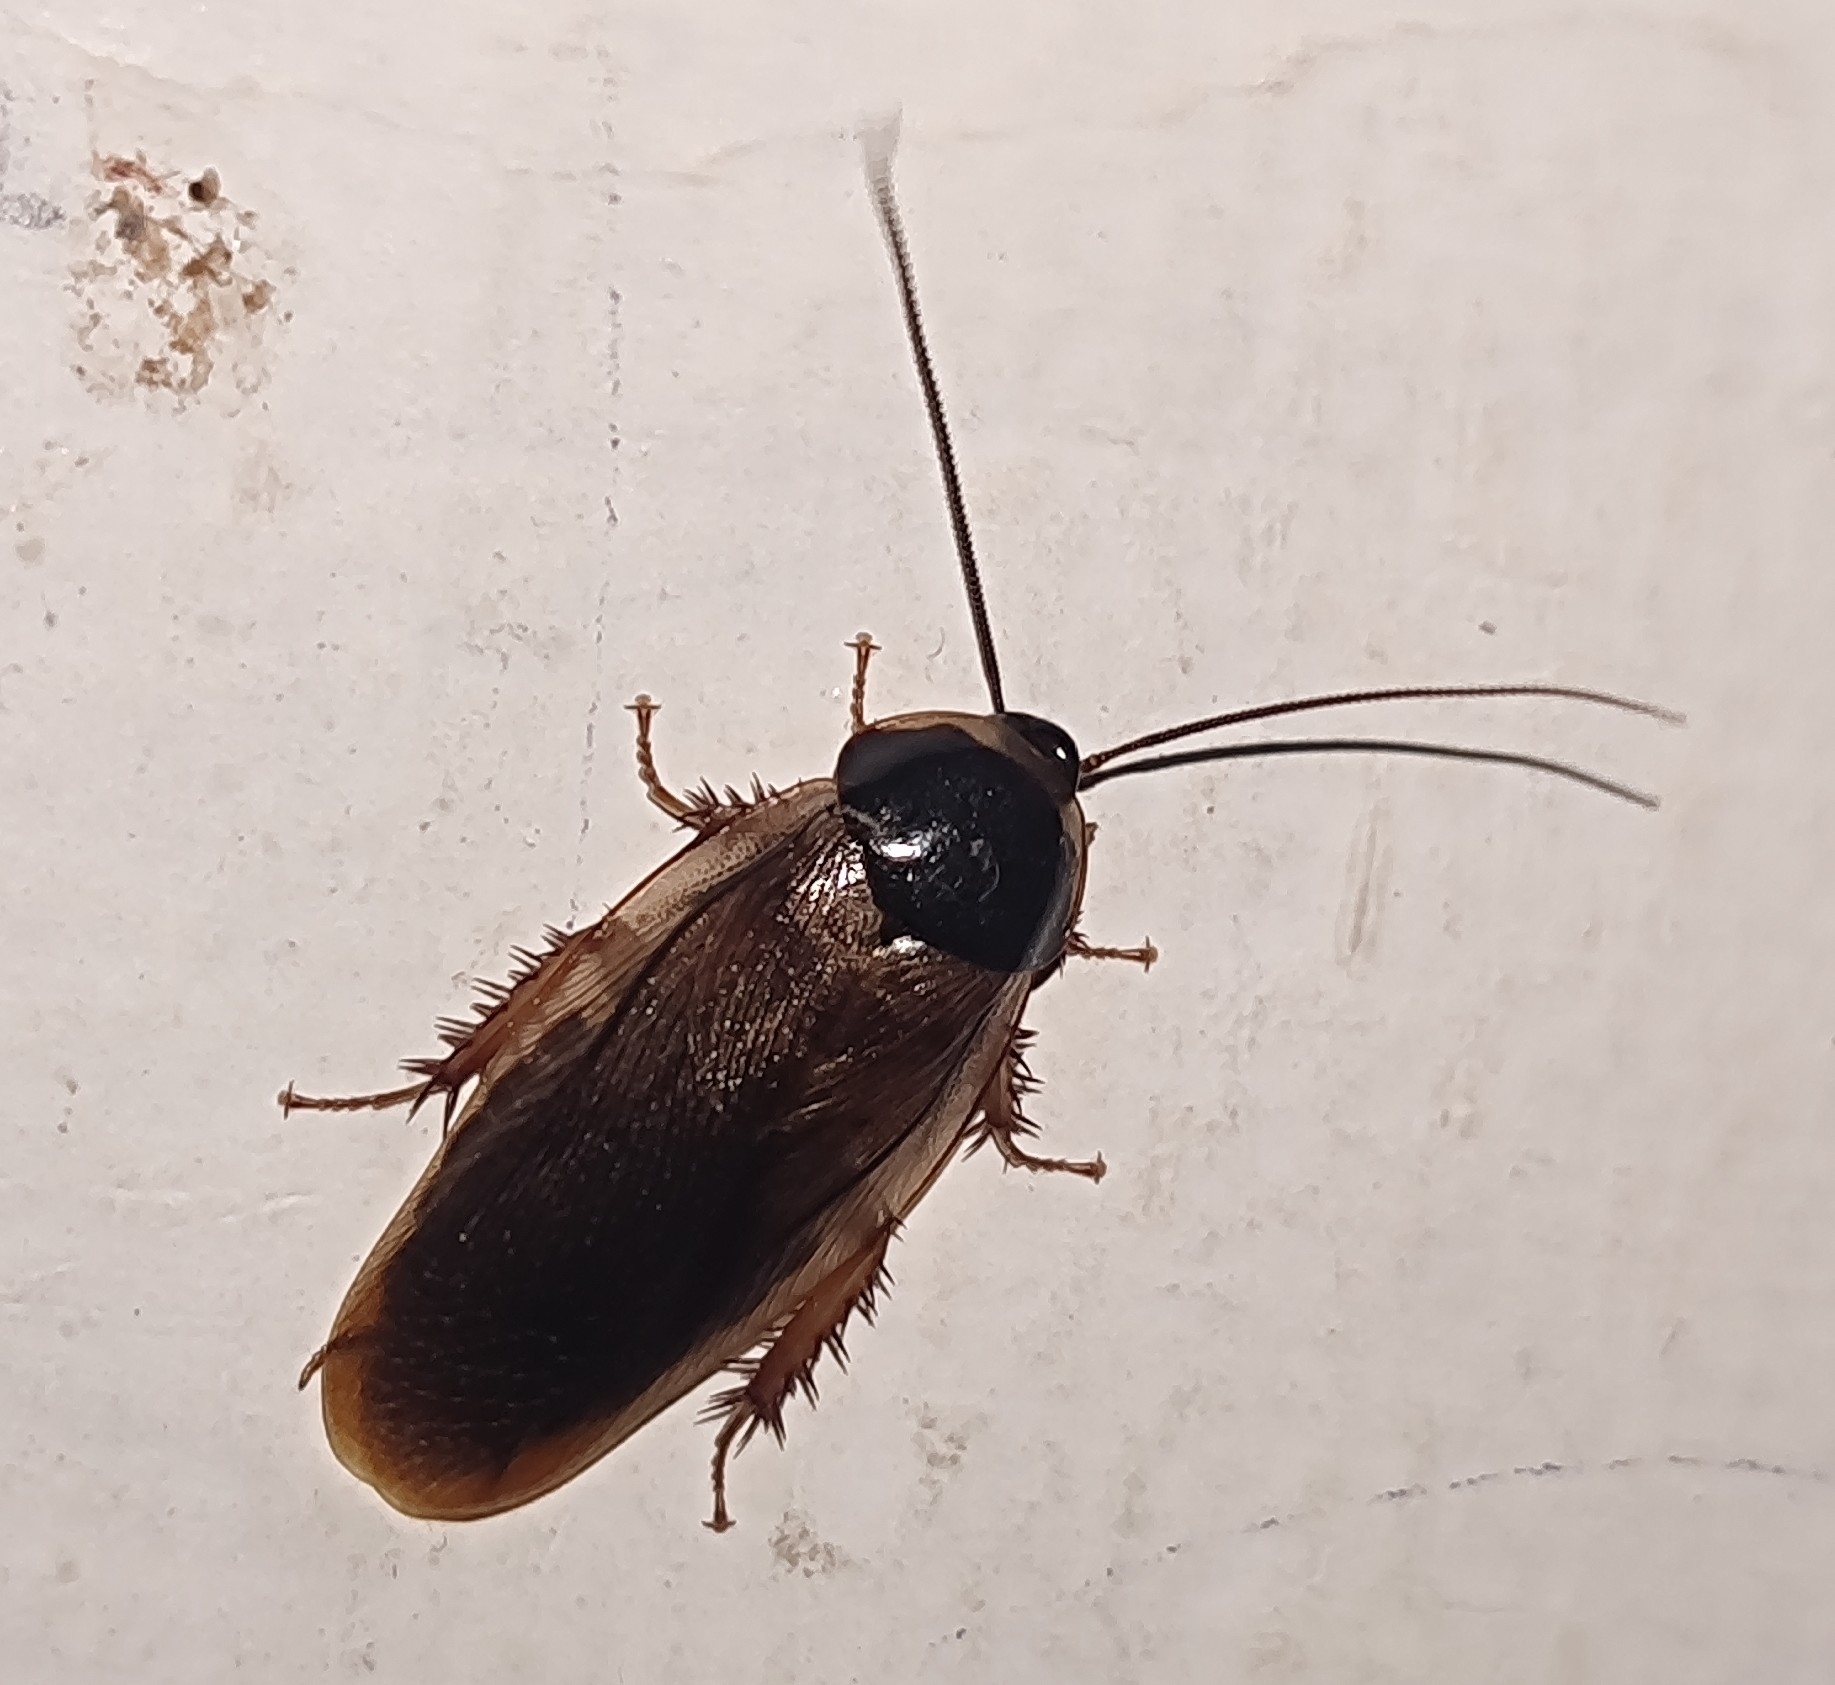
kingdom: Animalia
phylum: Arthropoda
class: Insecta
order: Blattodea
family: Blaberidae
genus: Pycnoscelus
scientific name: Pycnoscelus indicus
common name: Burrowing cockroach
